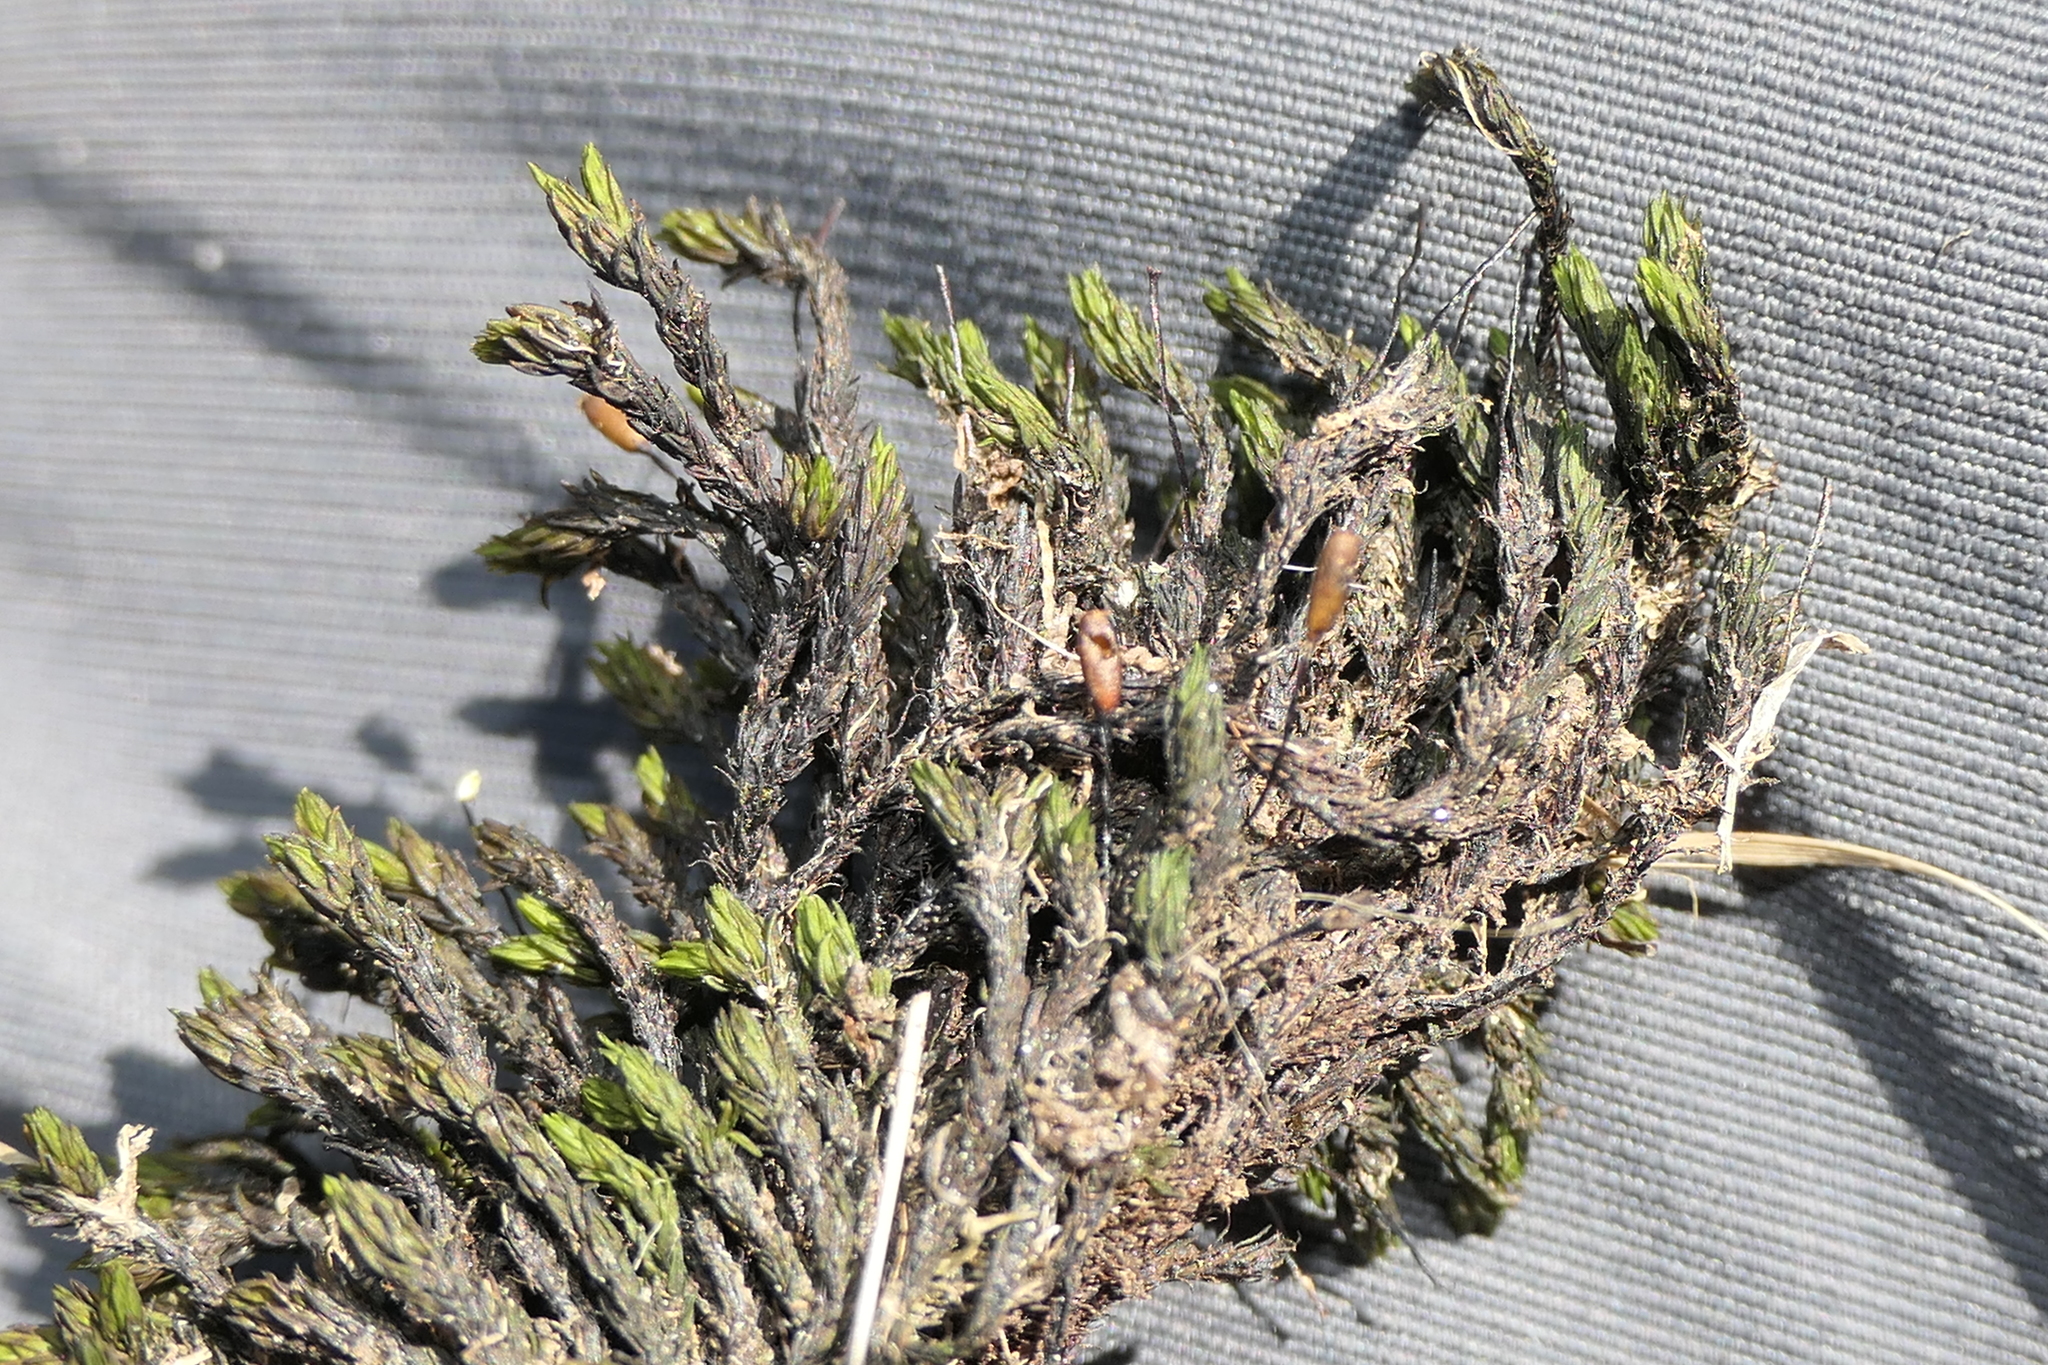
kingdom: Plantae
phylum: Bryophyta
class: Bryopsida
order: Grimmiales
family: Grimmiaceae
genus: Codriophorus
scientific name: Codriophorus acicularis
